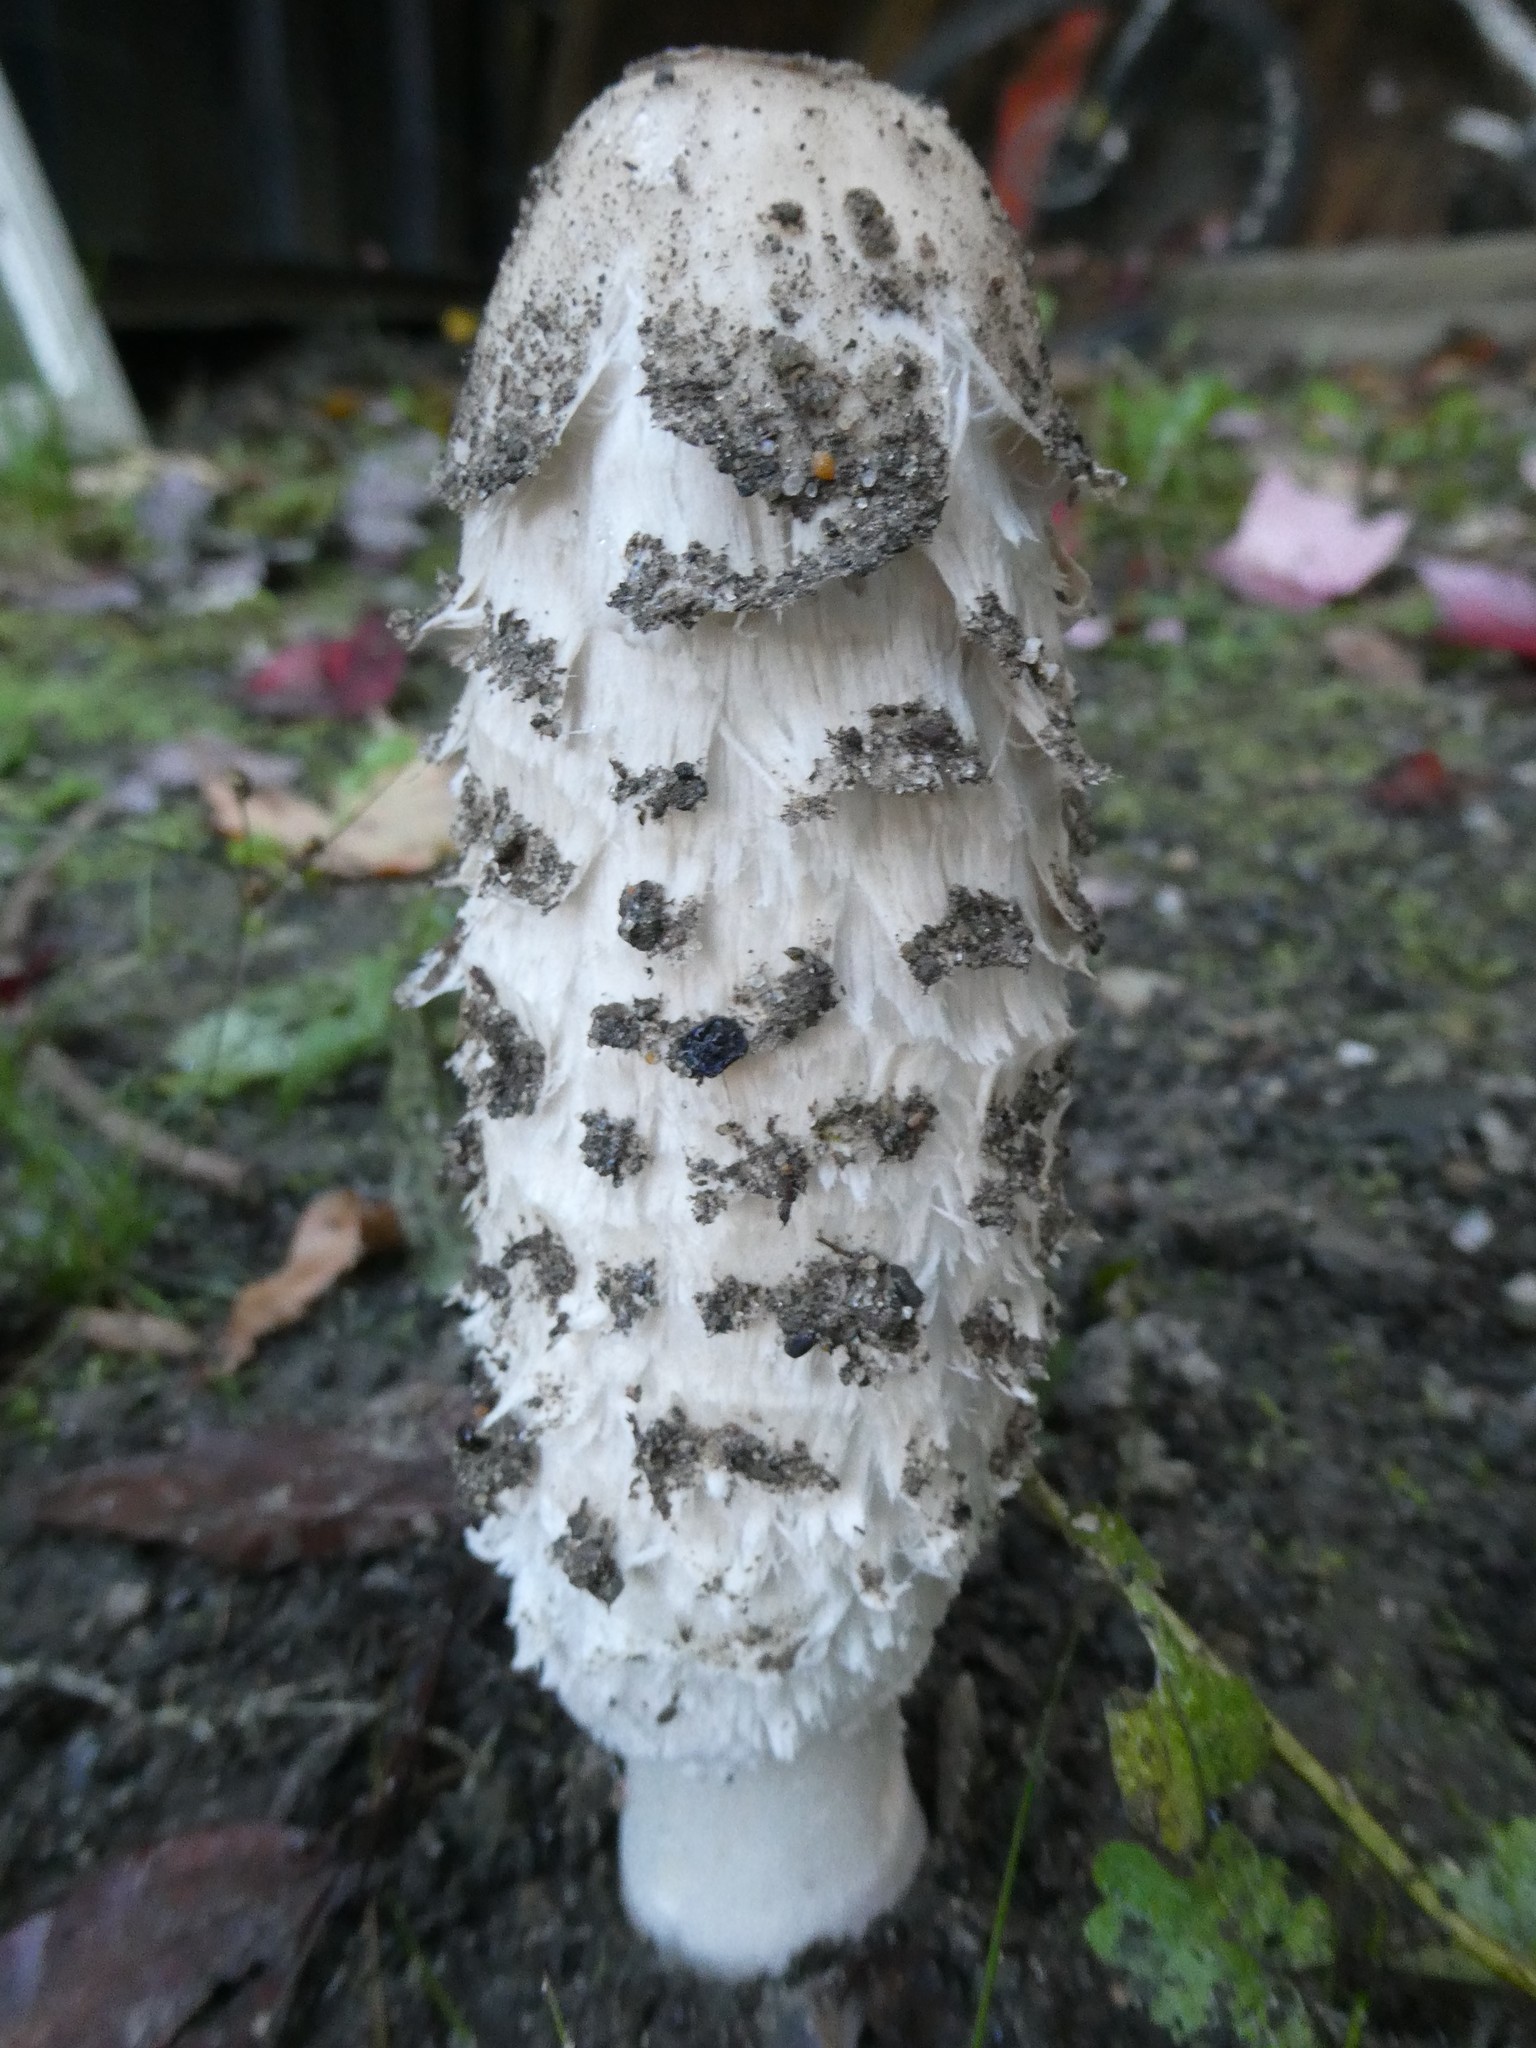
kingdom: Fungi
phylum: Basidiomycota
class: Agaricomycetes
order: Agaricales
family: Agaricaceae
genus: Coprinus
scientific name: Coprinus comatus
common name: Lawyer's wig
